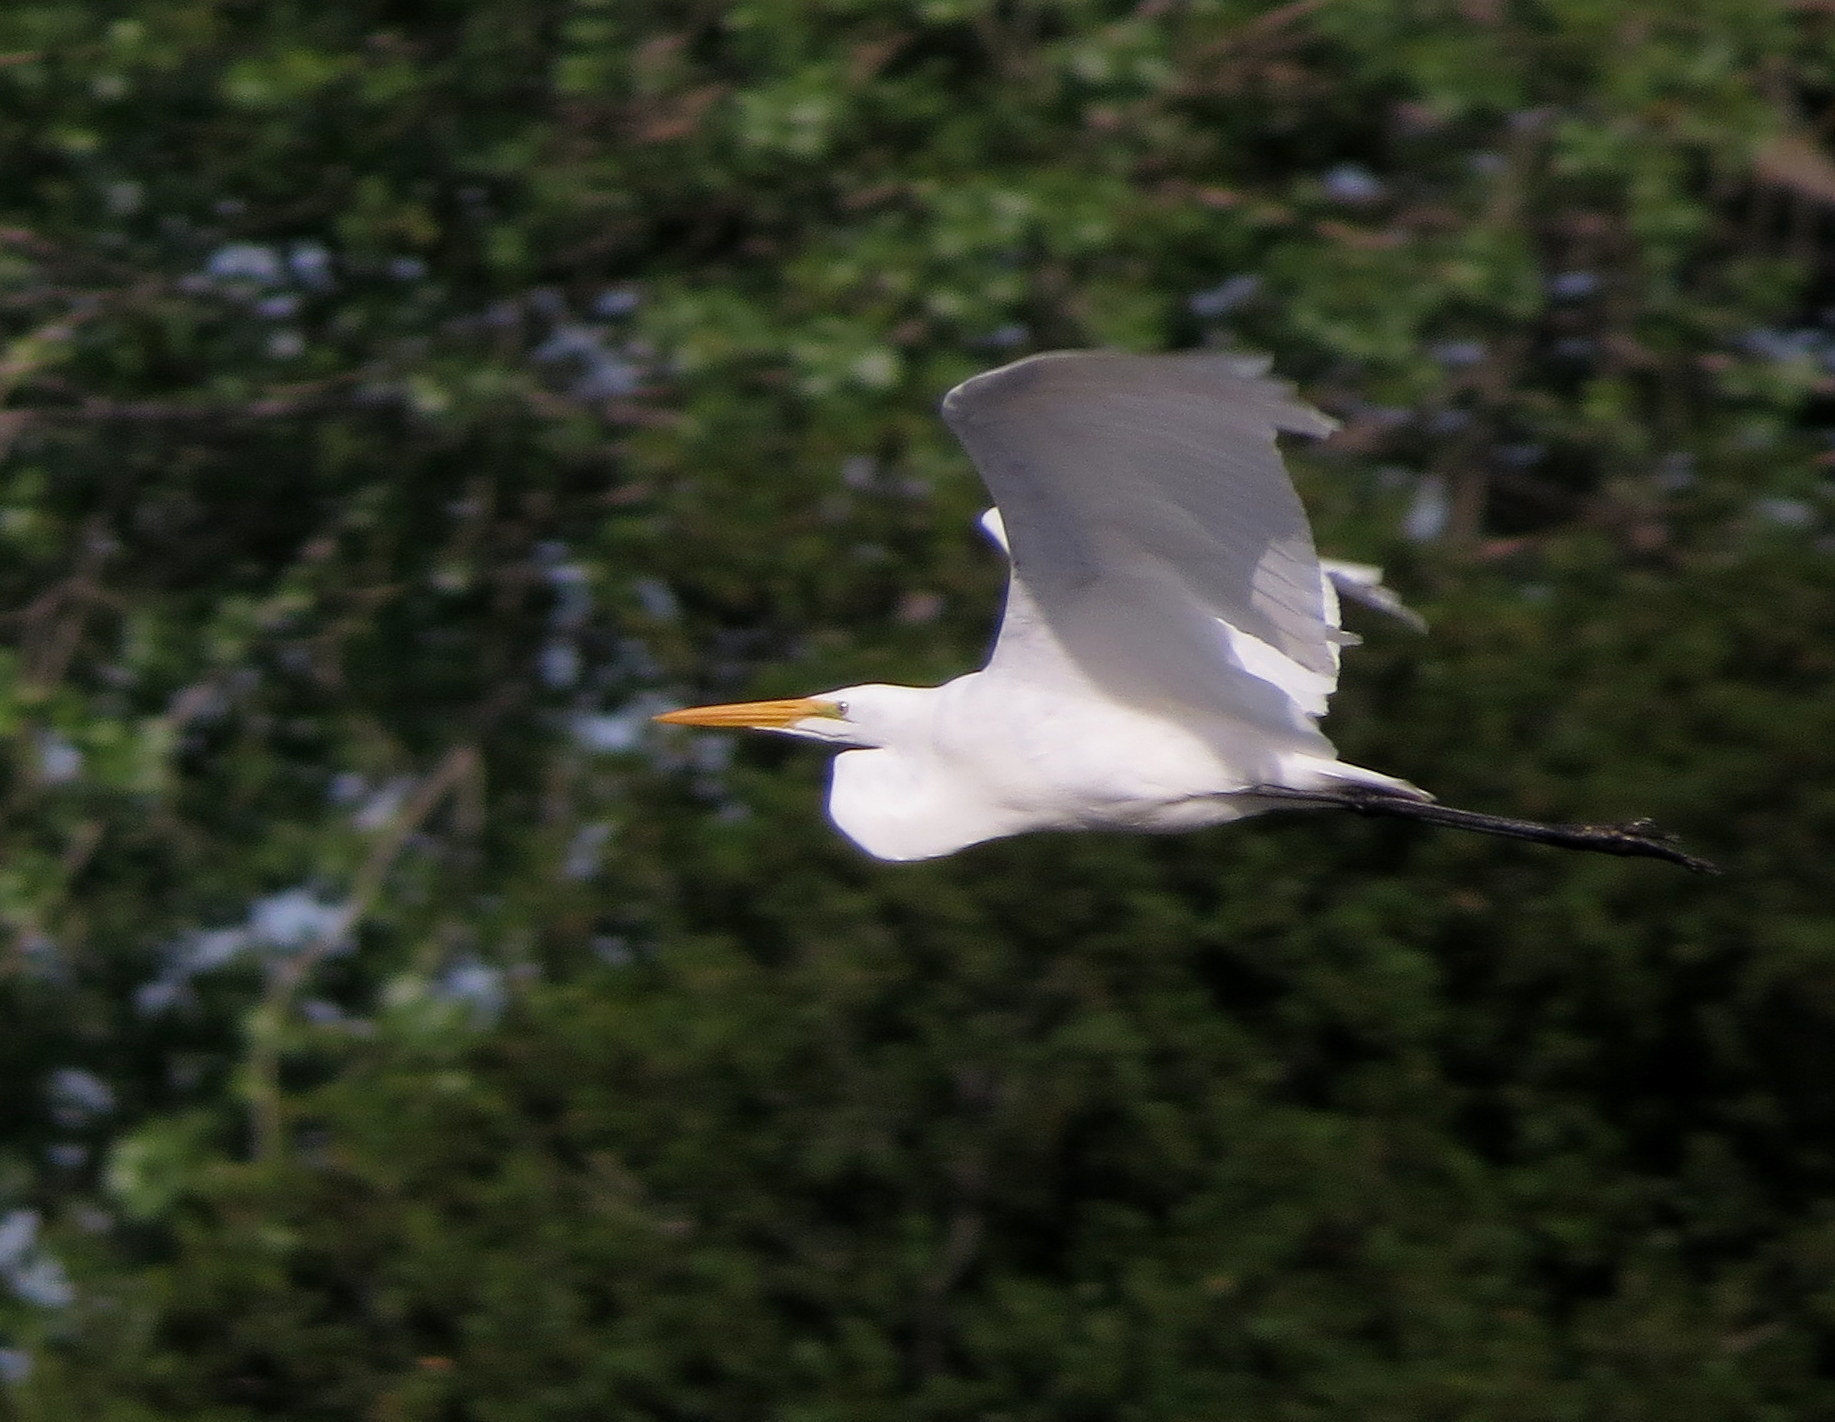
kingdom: Animalia
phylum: Chordata
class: Aves
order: Pelecaniformes
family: Ardeidae
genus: Ardea
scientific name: Ardea alba
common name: Great egret
